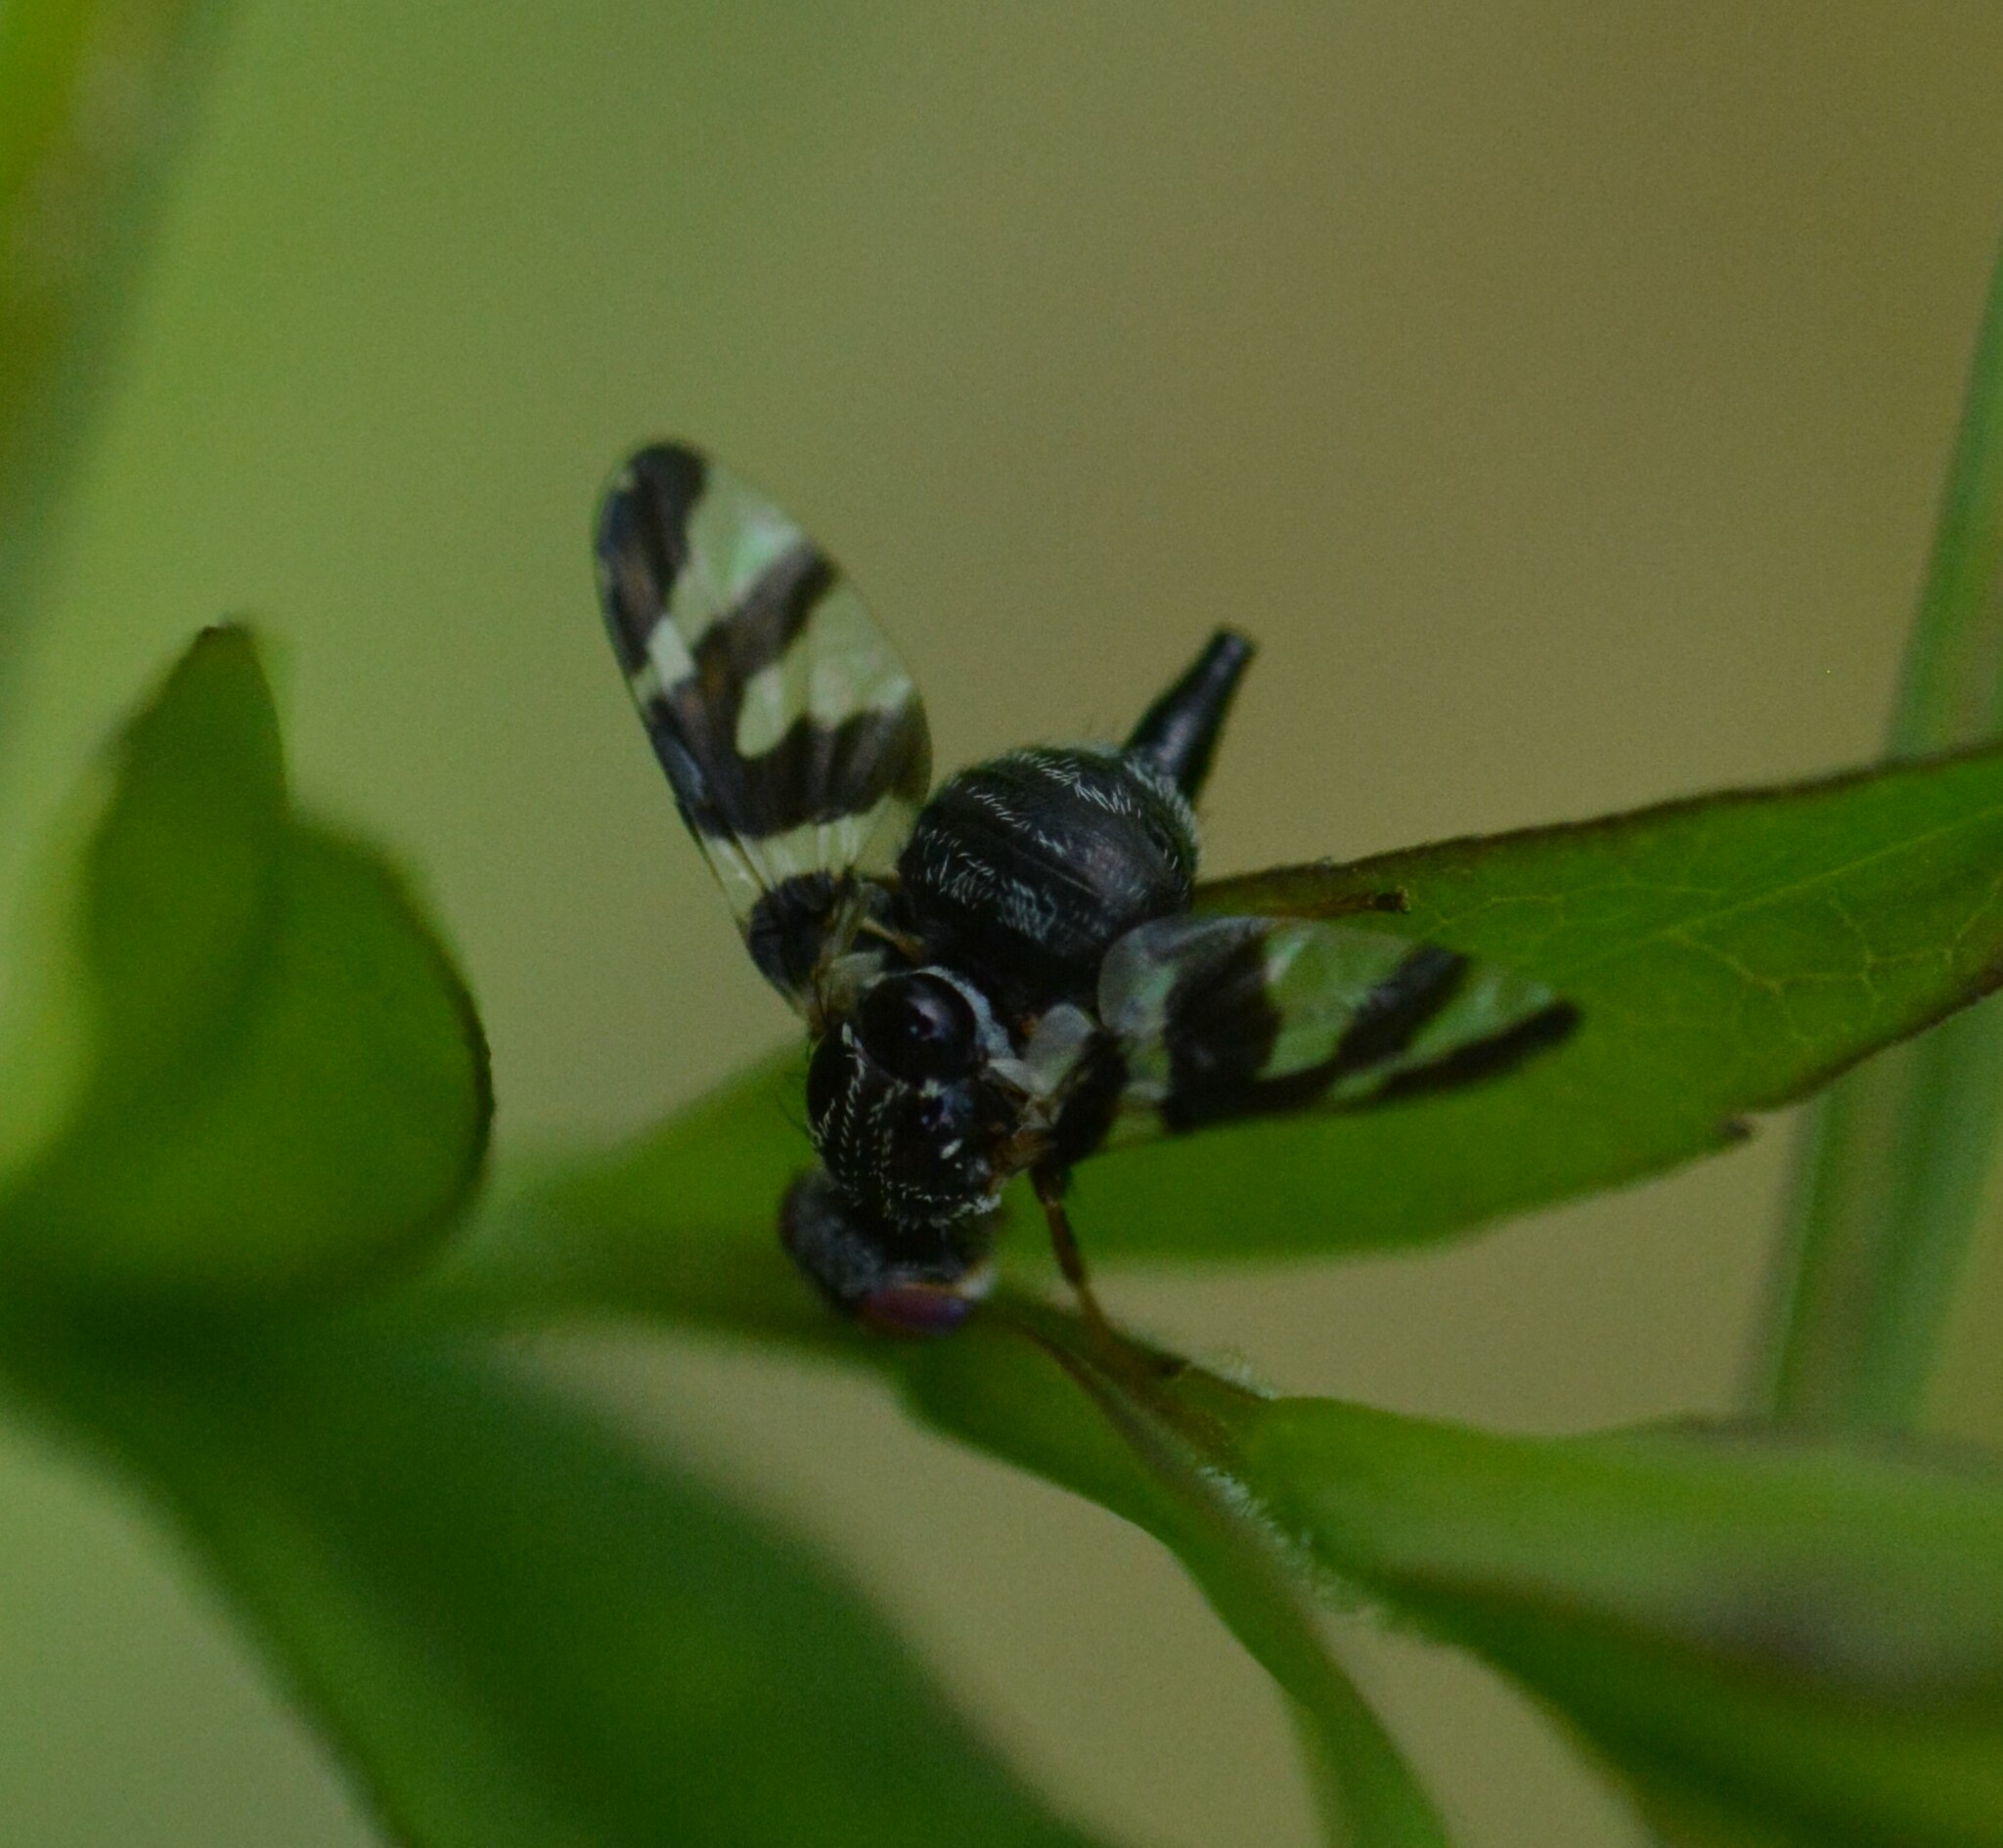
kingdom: Animalia
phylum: Arthropoda
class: Insecta
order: Diptera
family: Tephritidae
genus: Procecidochares
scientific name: Procecidochares atra
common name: Goldenrod brussels sprout gall fly
